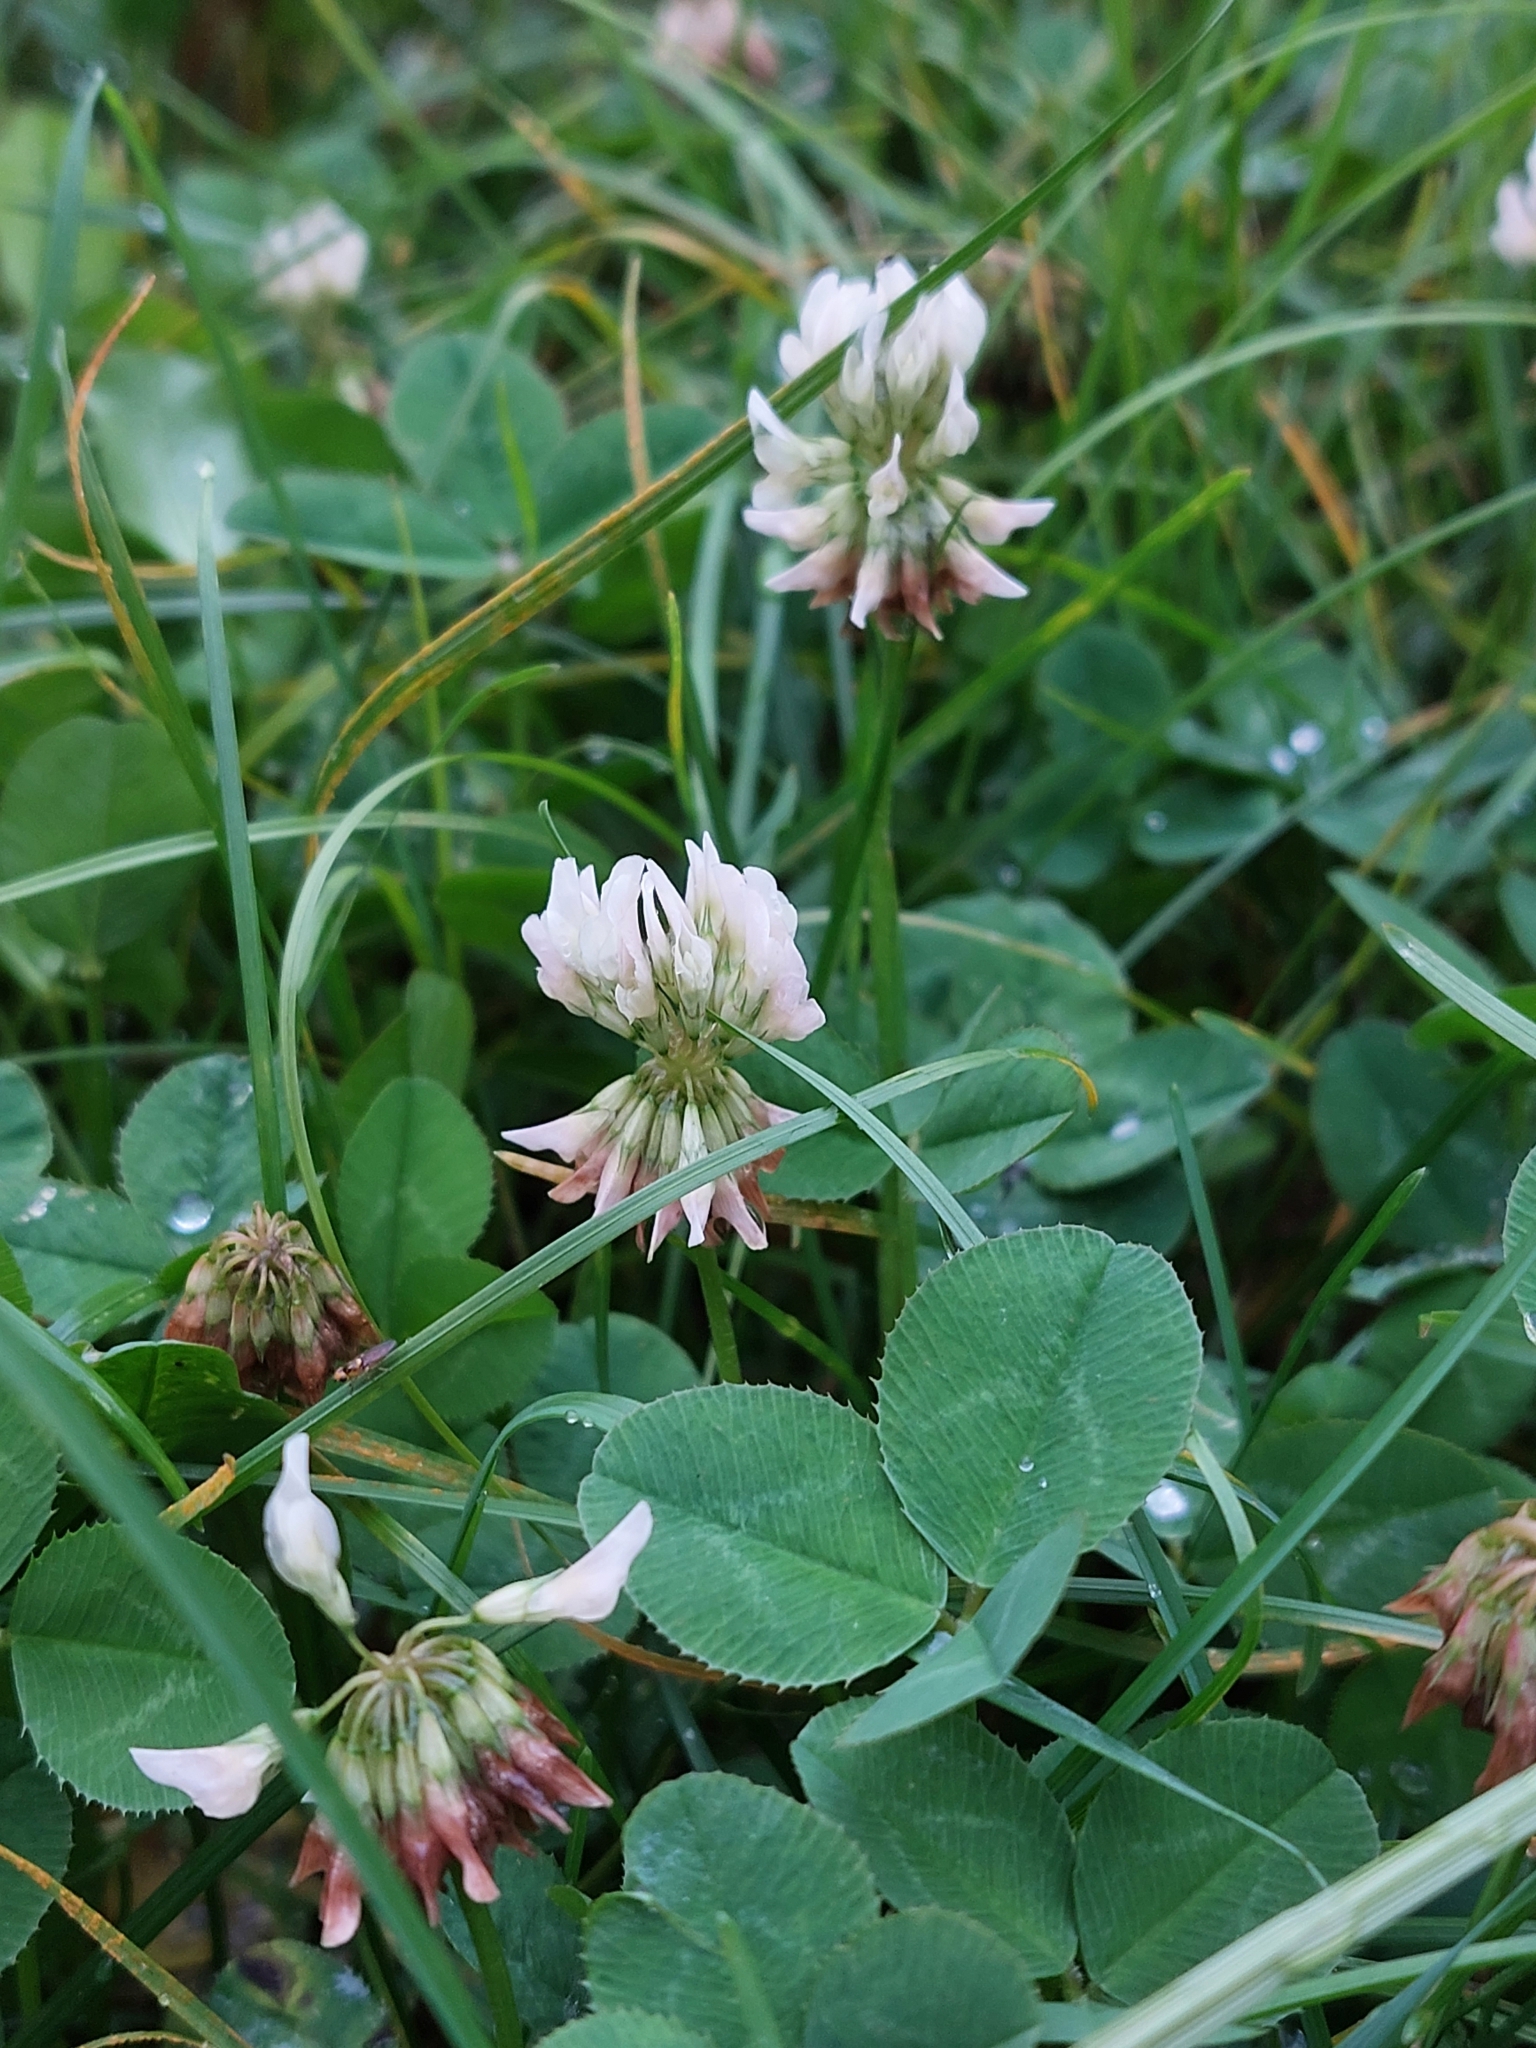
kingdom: Plantae
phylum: Tracheophyta
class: Magnoliopsida
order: Fabales
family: Fabaceae
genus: Trifolium
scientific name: Trifolium repens
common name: White clover
